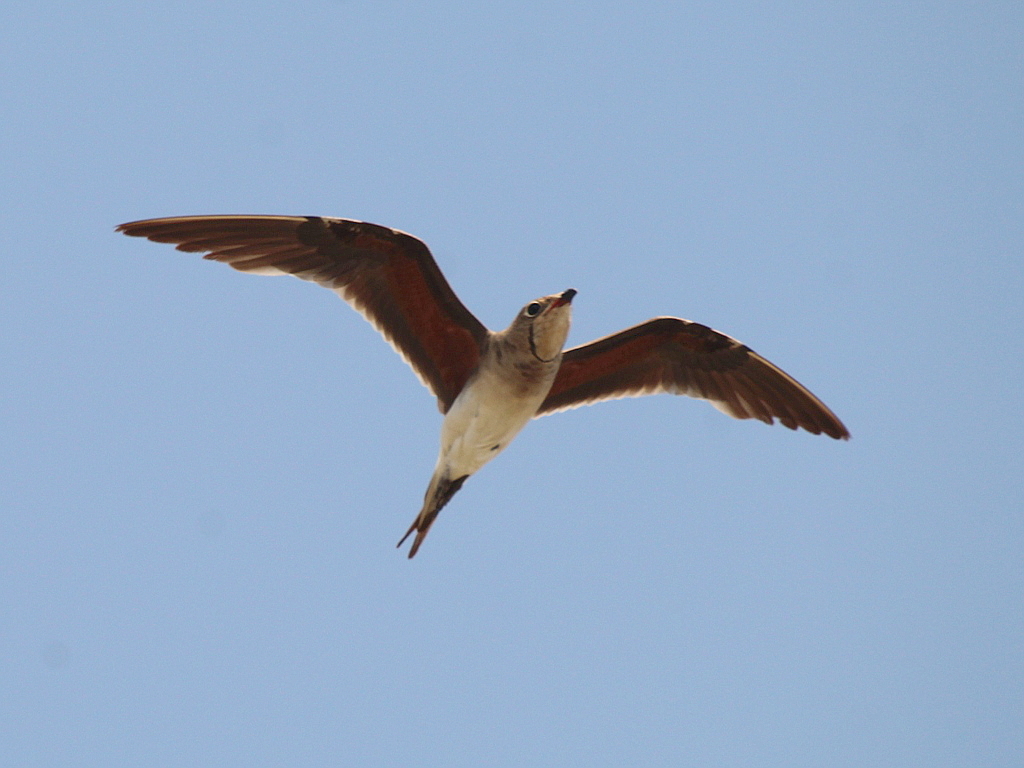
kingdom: Animalia
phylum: Chordata
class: Aves
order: Charadriiformes
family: Glareolidae
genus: Glareola
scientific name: Glareola pratincola
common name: Collared pratincole
